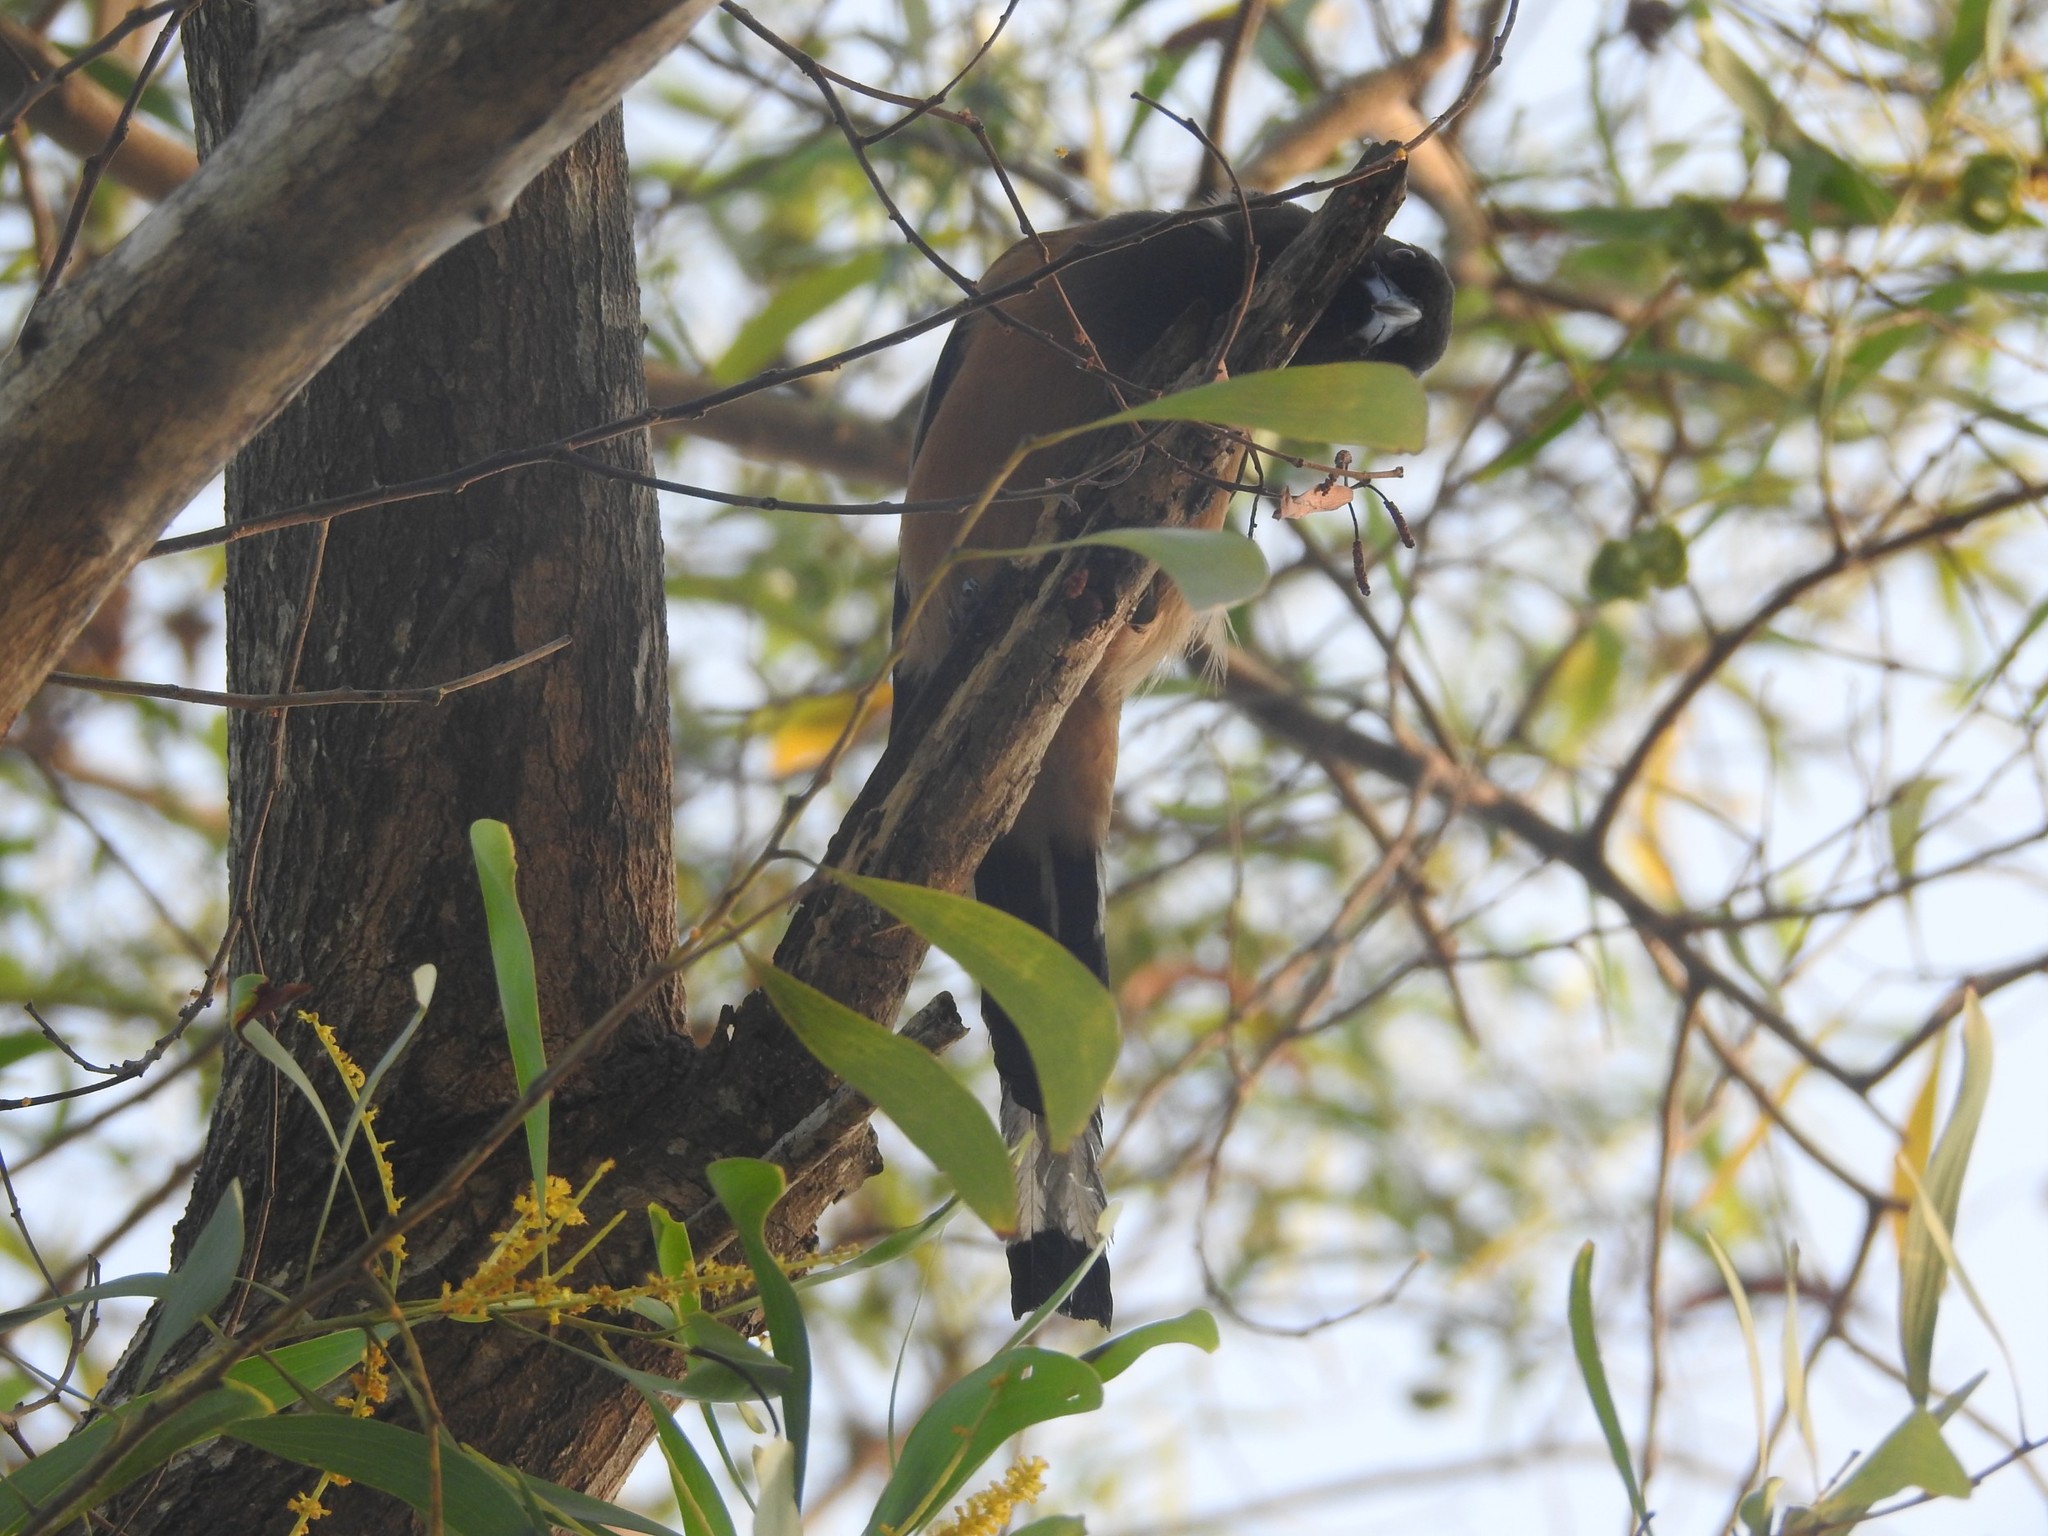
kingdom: Animalia
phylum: Chordata
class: Aves
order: Passeriformes
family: Corvidae
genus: Dendrocitta
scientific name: Dendrocitta vagabunda
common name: Rufous treepie
